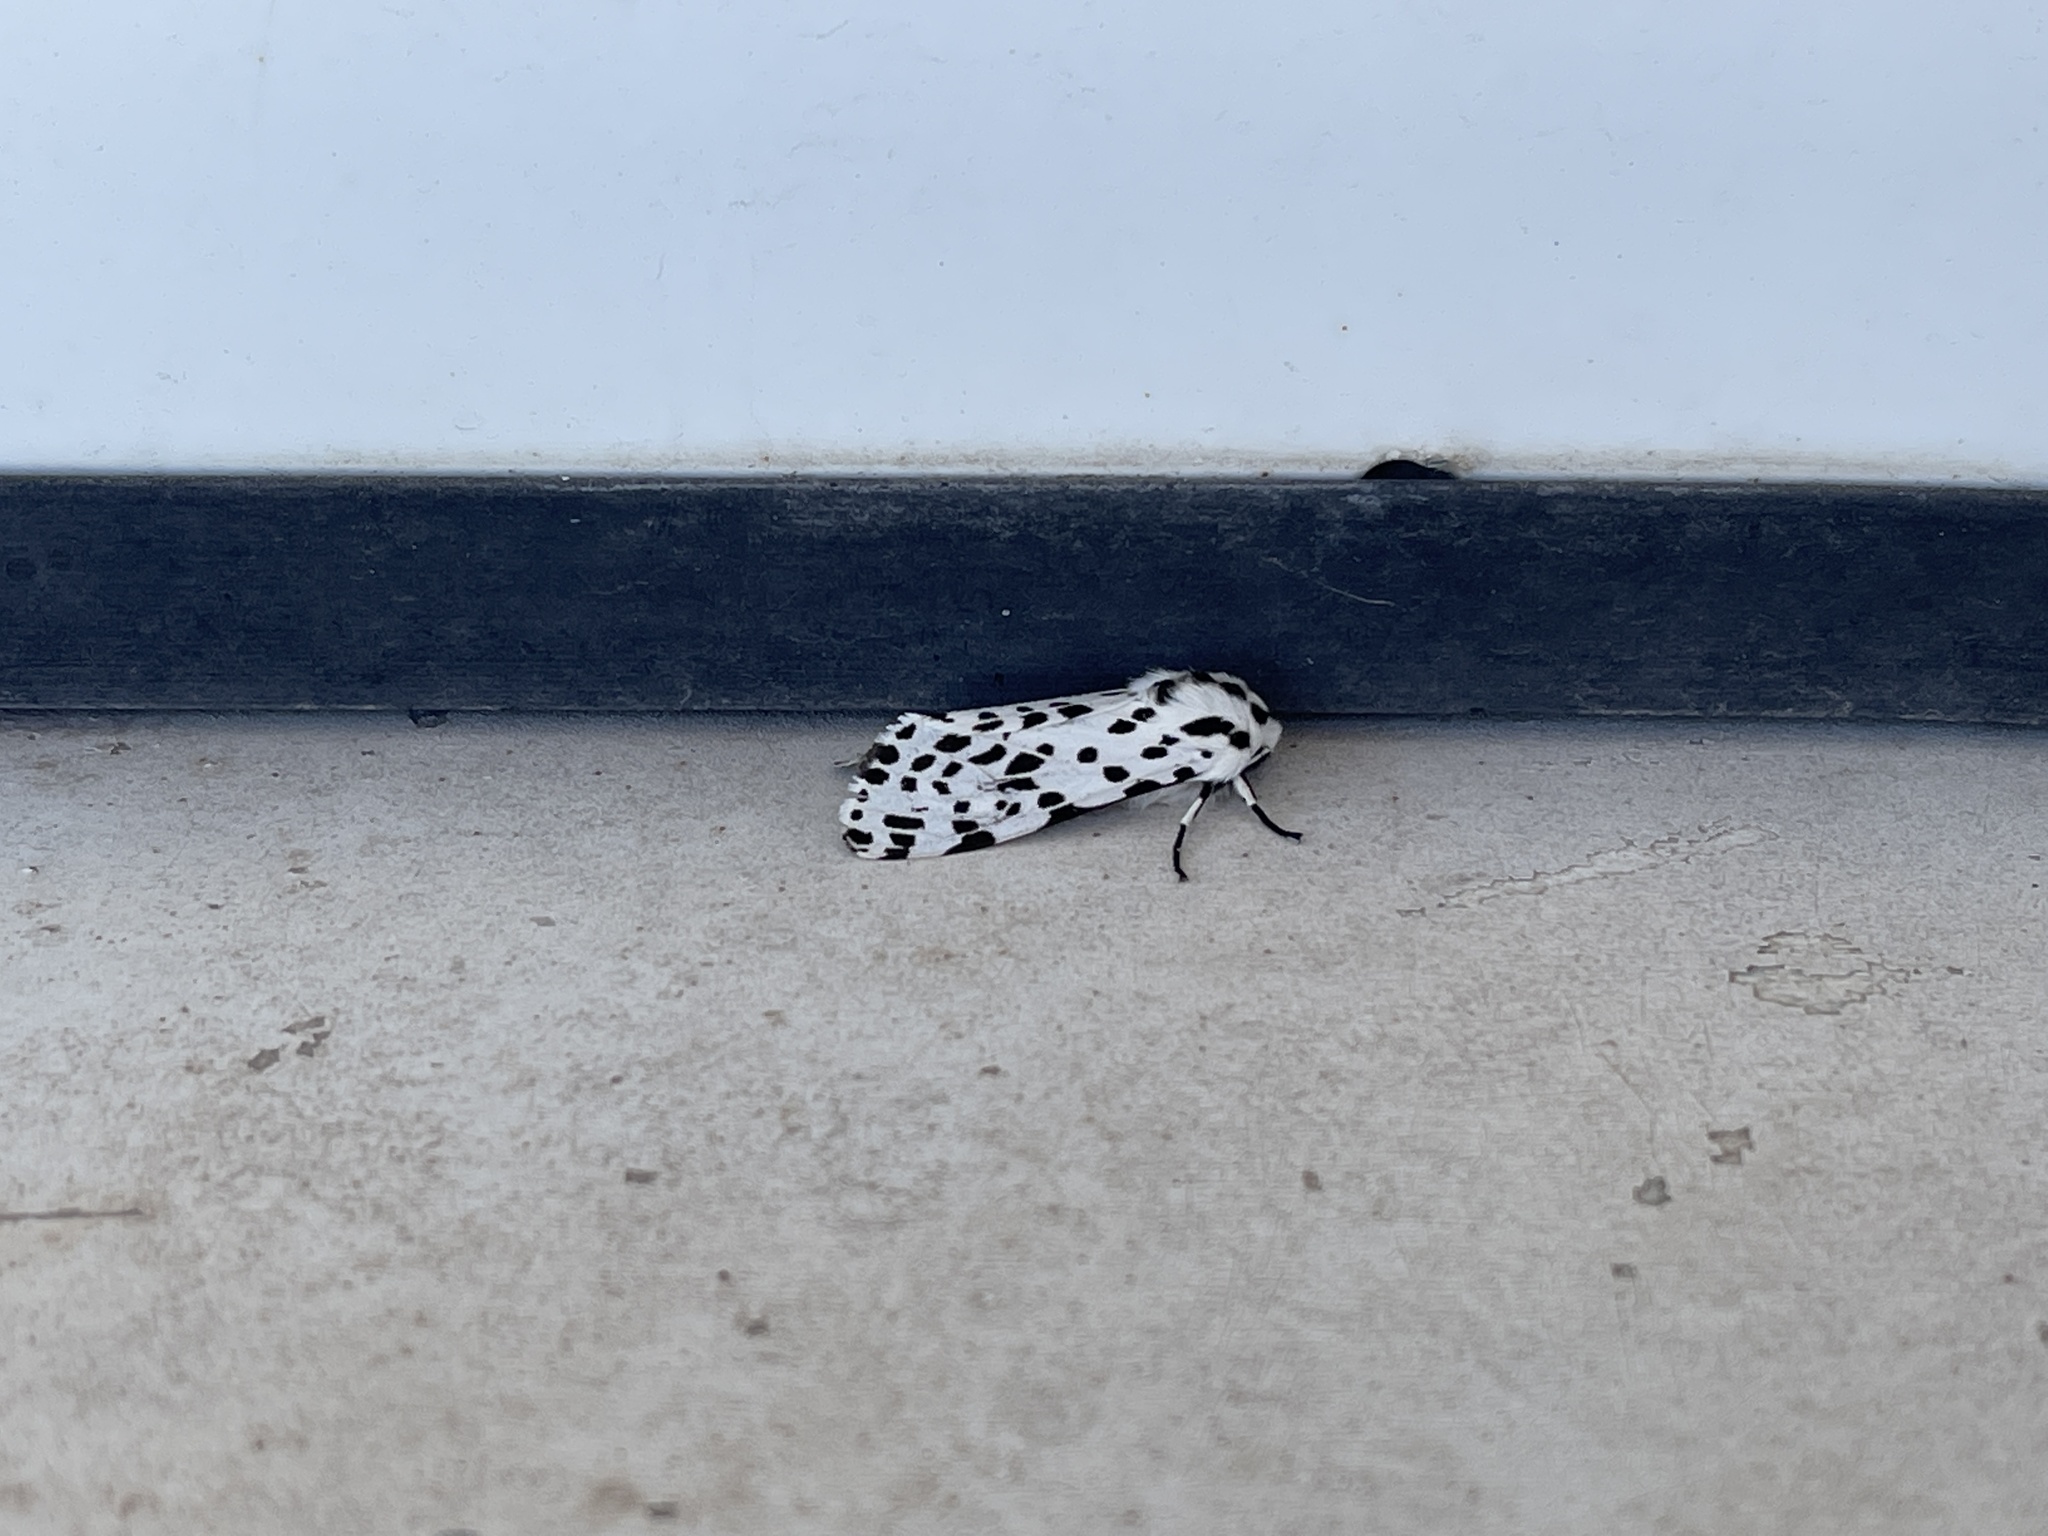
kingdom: Animalia
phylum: Arthropoda
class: Insecta
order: Lepidoptera
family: Erebidae
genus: Hypercompe
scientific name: Hypercompe permaculata
